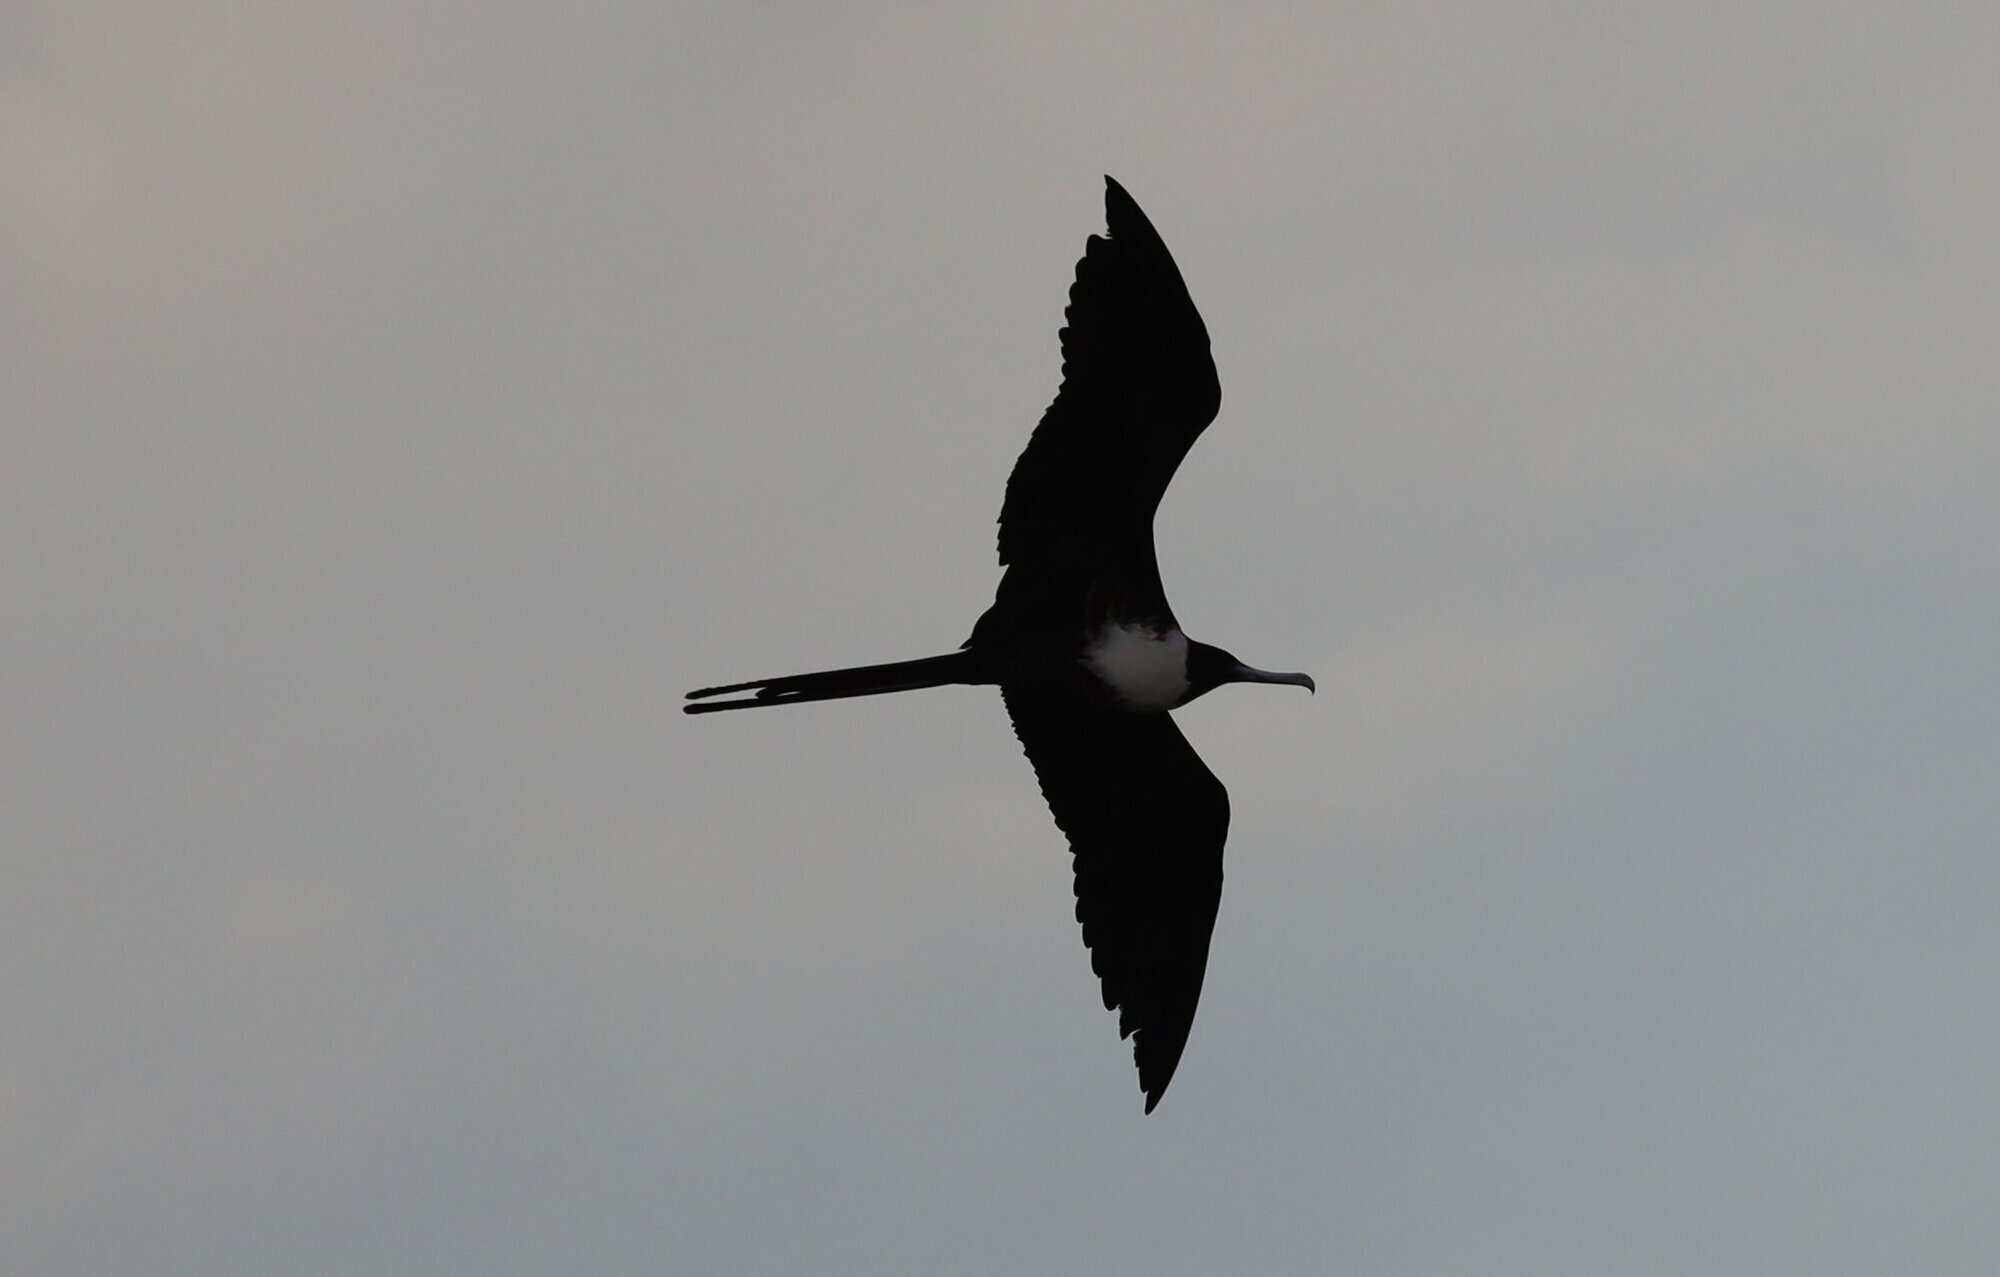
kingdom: Animalia
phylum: Chordata
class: Aves
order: Suliformes
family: Fregatidae
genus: Fregata
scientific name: Fregata magnificens
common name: Magnificent frigatebird
